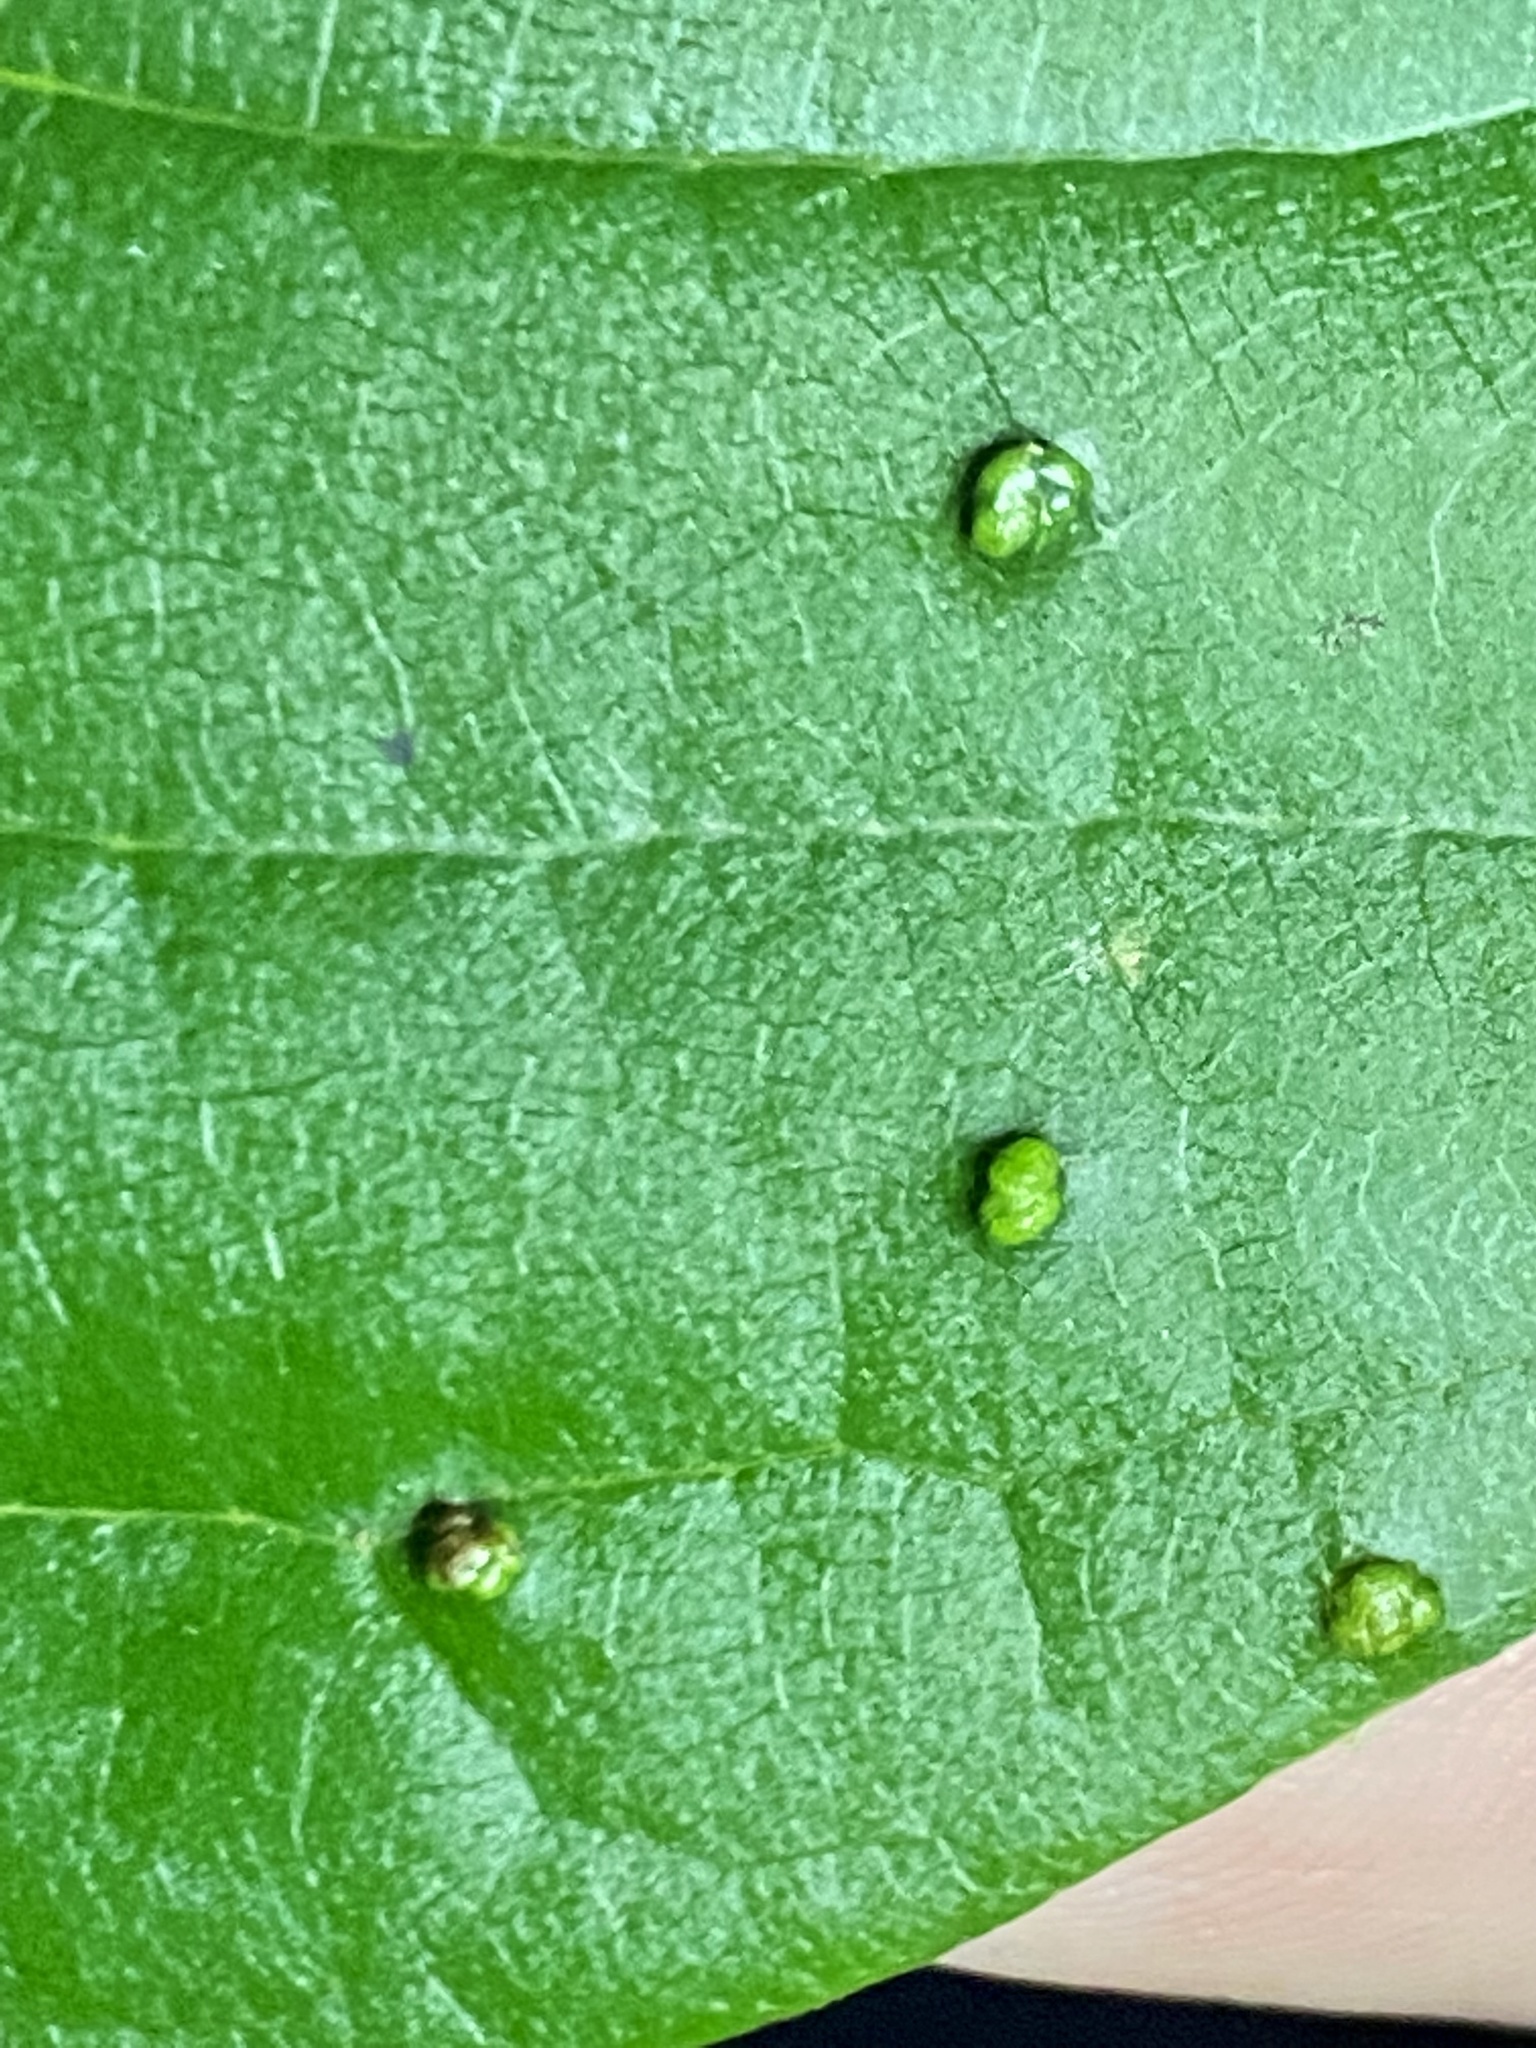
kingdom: Animalia
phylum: Arthropoda
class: Arachnida
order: Trombidiformes
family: Eriophyidae
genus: Aceria
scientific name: Aceria
